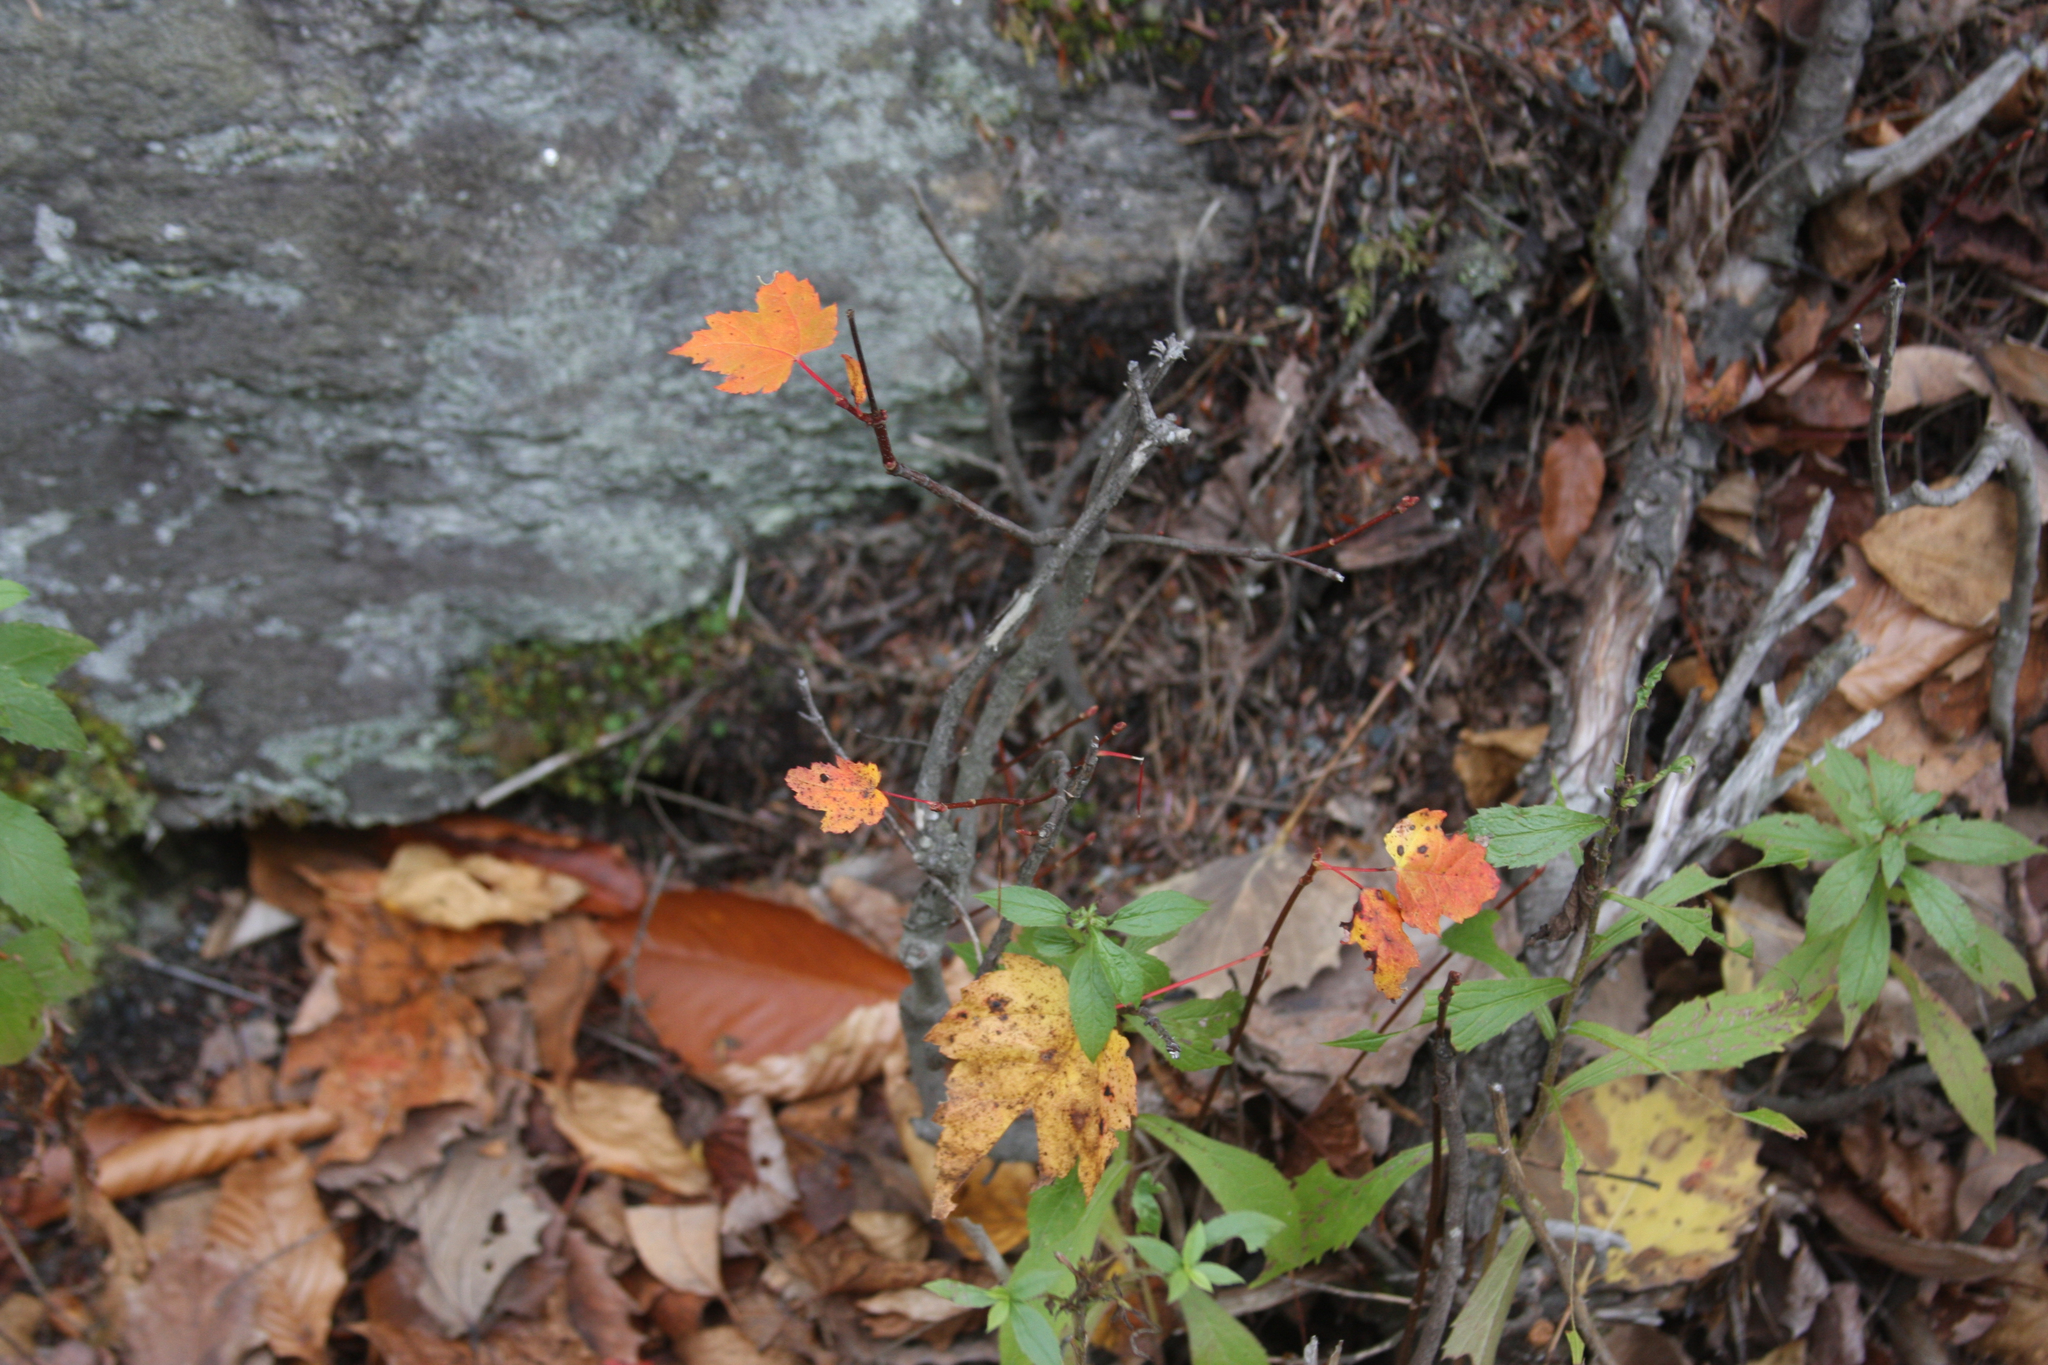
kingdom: Plantae
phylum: Tracheophyta
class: Magnoliopsida
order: Sapindales
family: Sapindaceae
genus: Acer
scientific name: Acer rubrum
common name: Red maple
